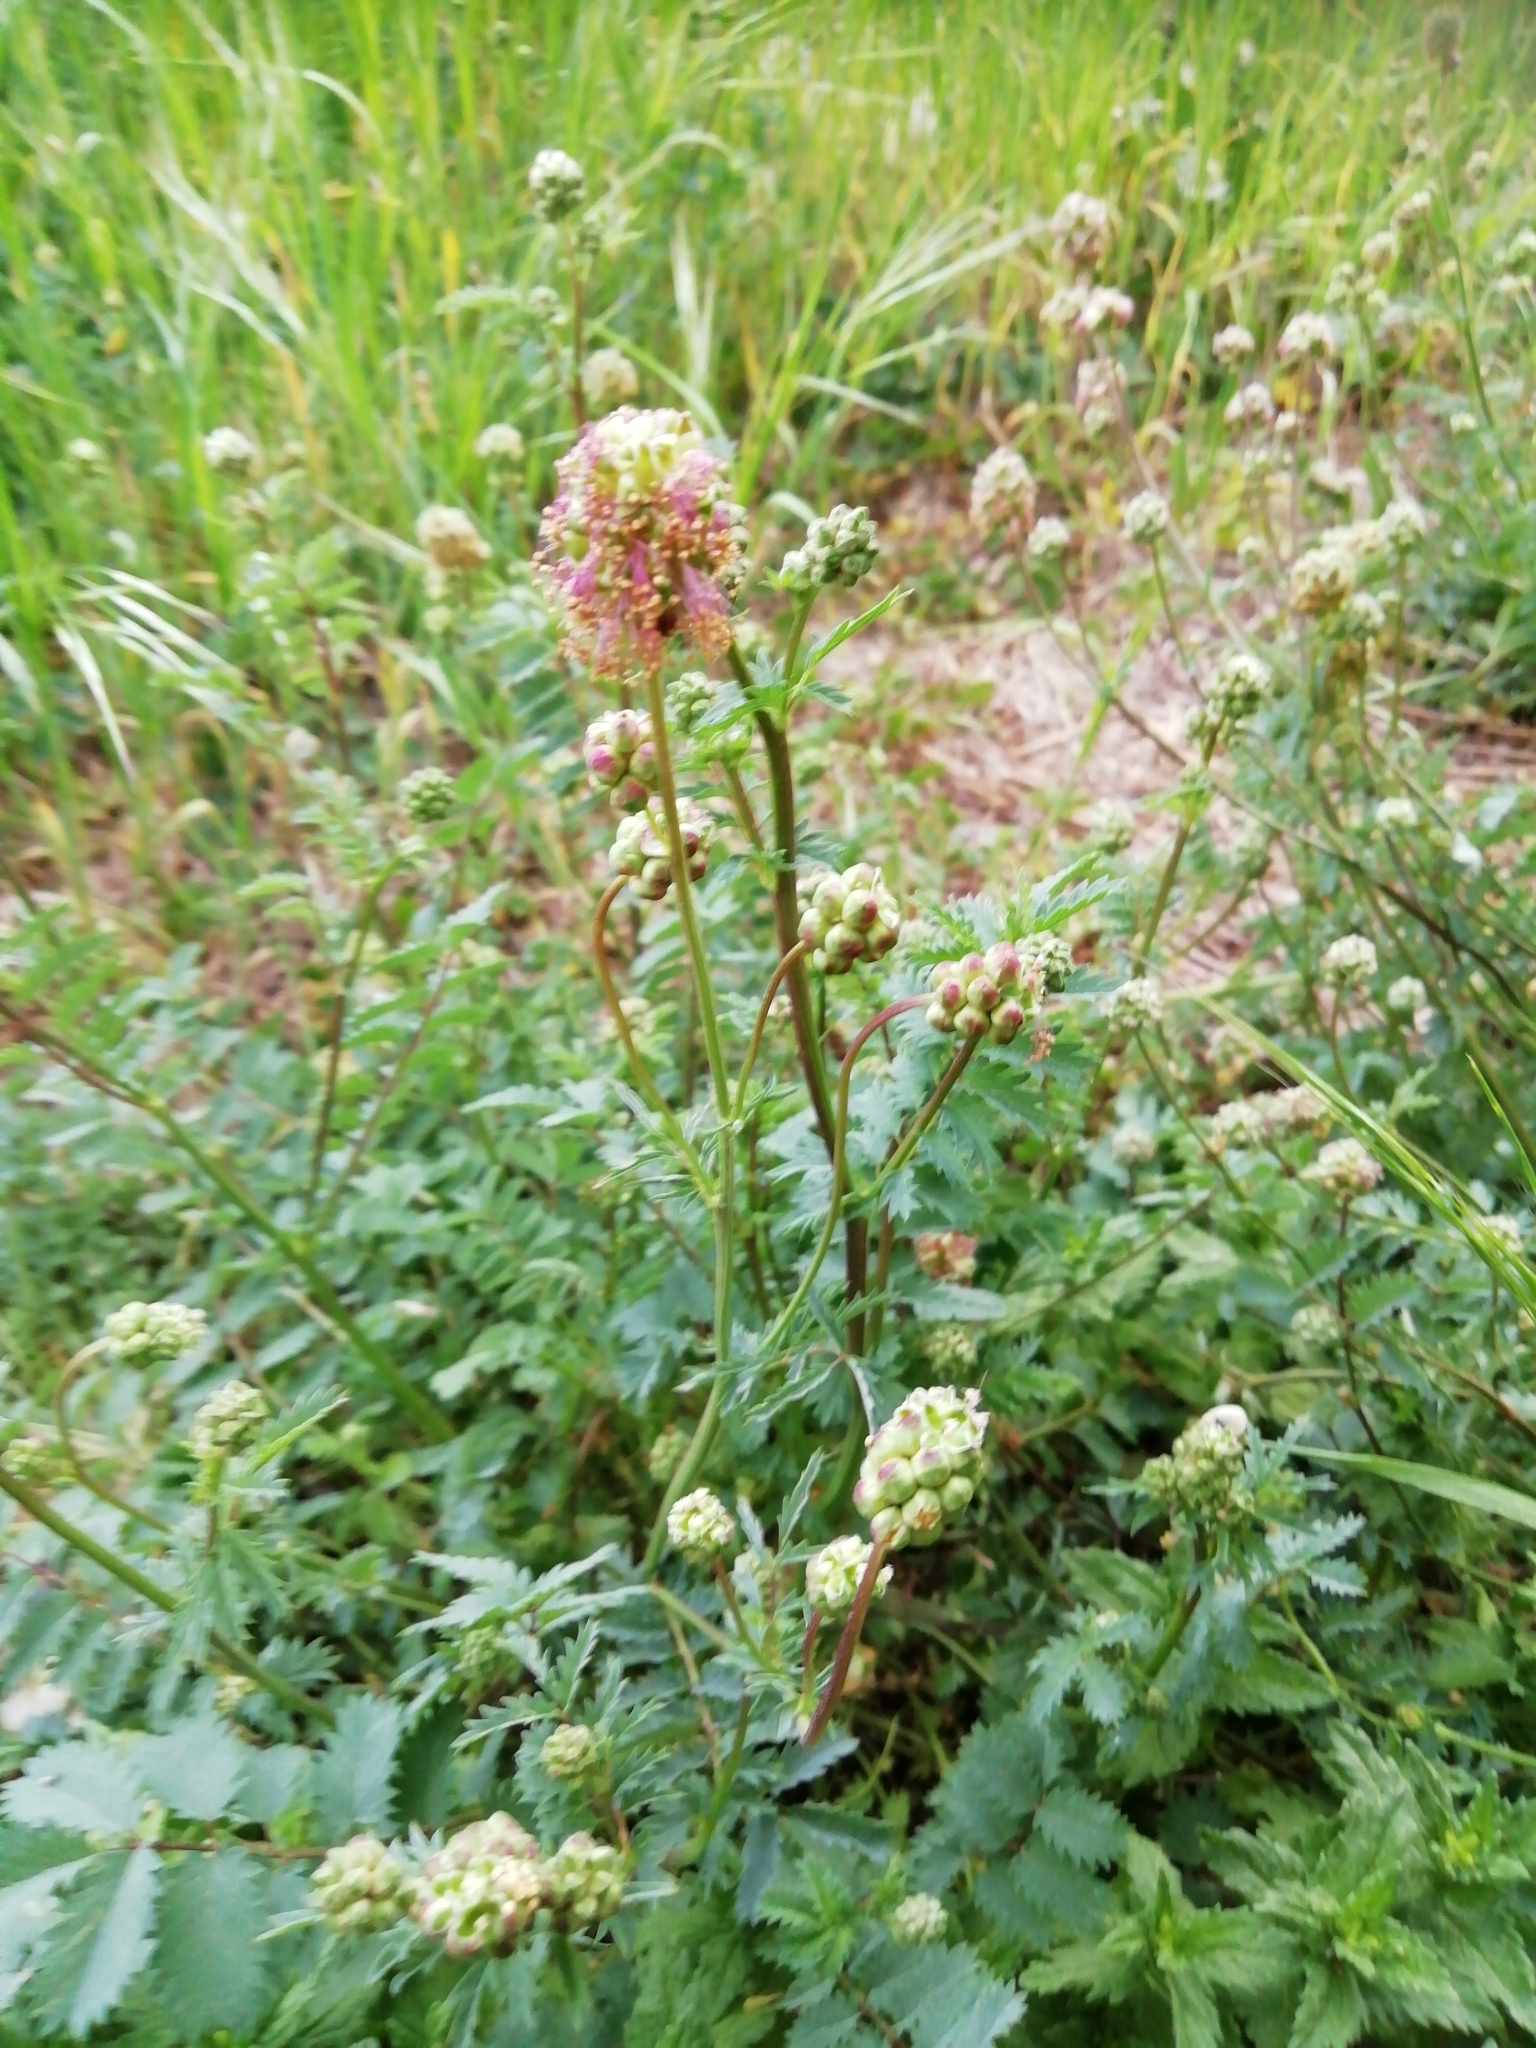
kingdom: Plantae
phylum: Tracheophyta
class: Magnoliopsida
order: Rosales
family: Rosaceae
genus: Poterium
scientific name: Poterium sanguisorba
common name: Salad burnet
